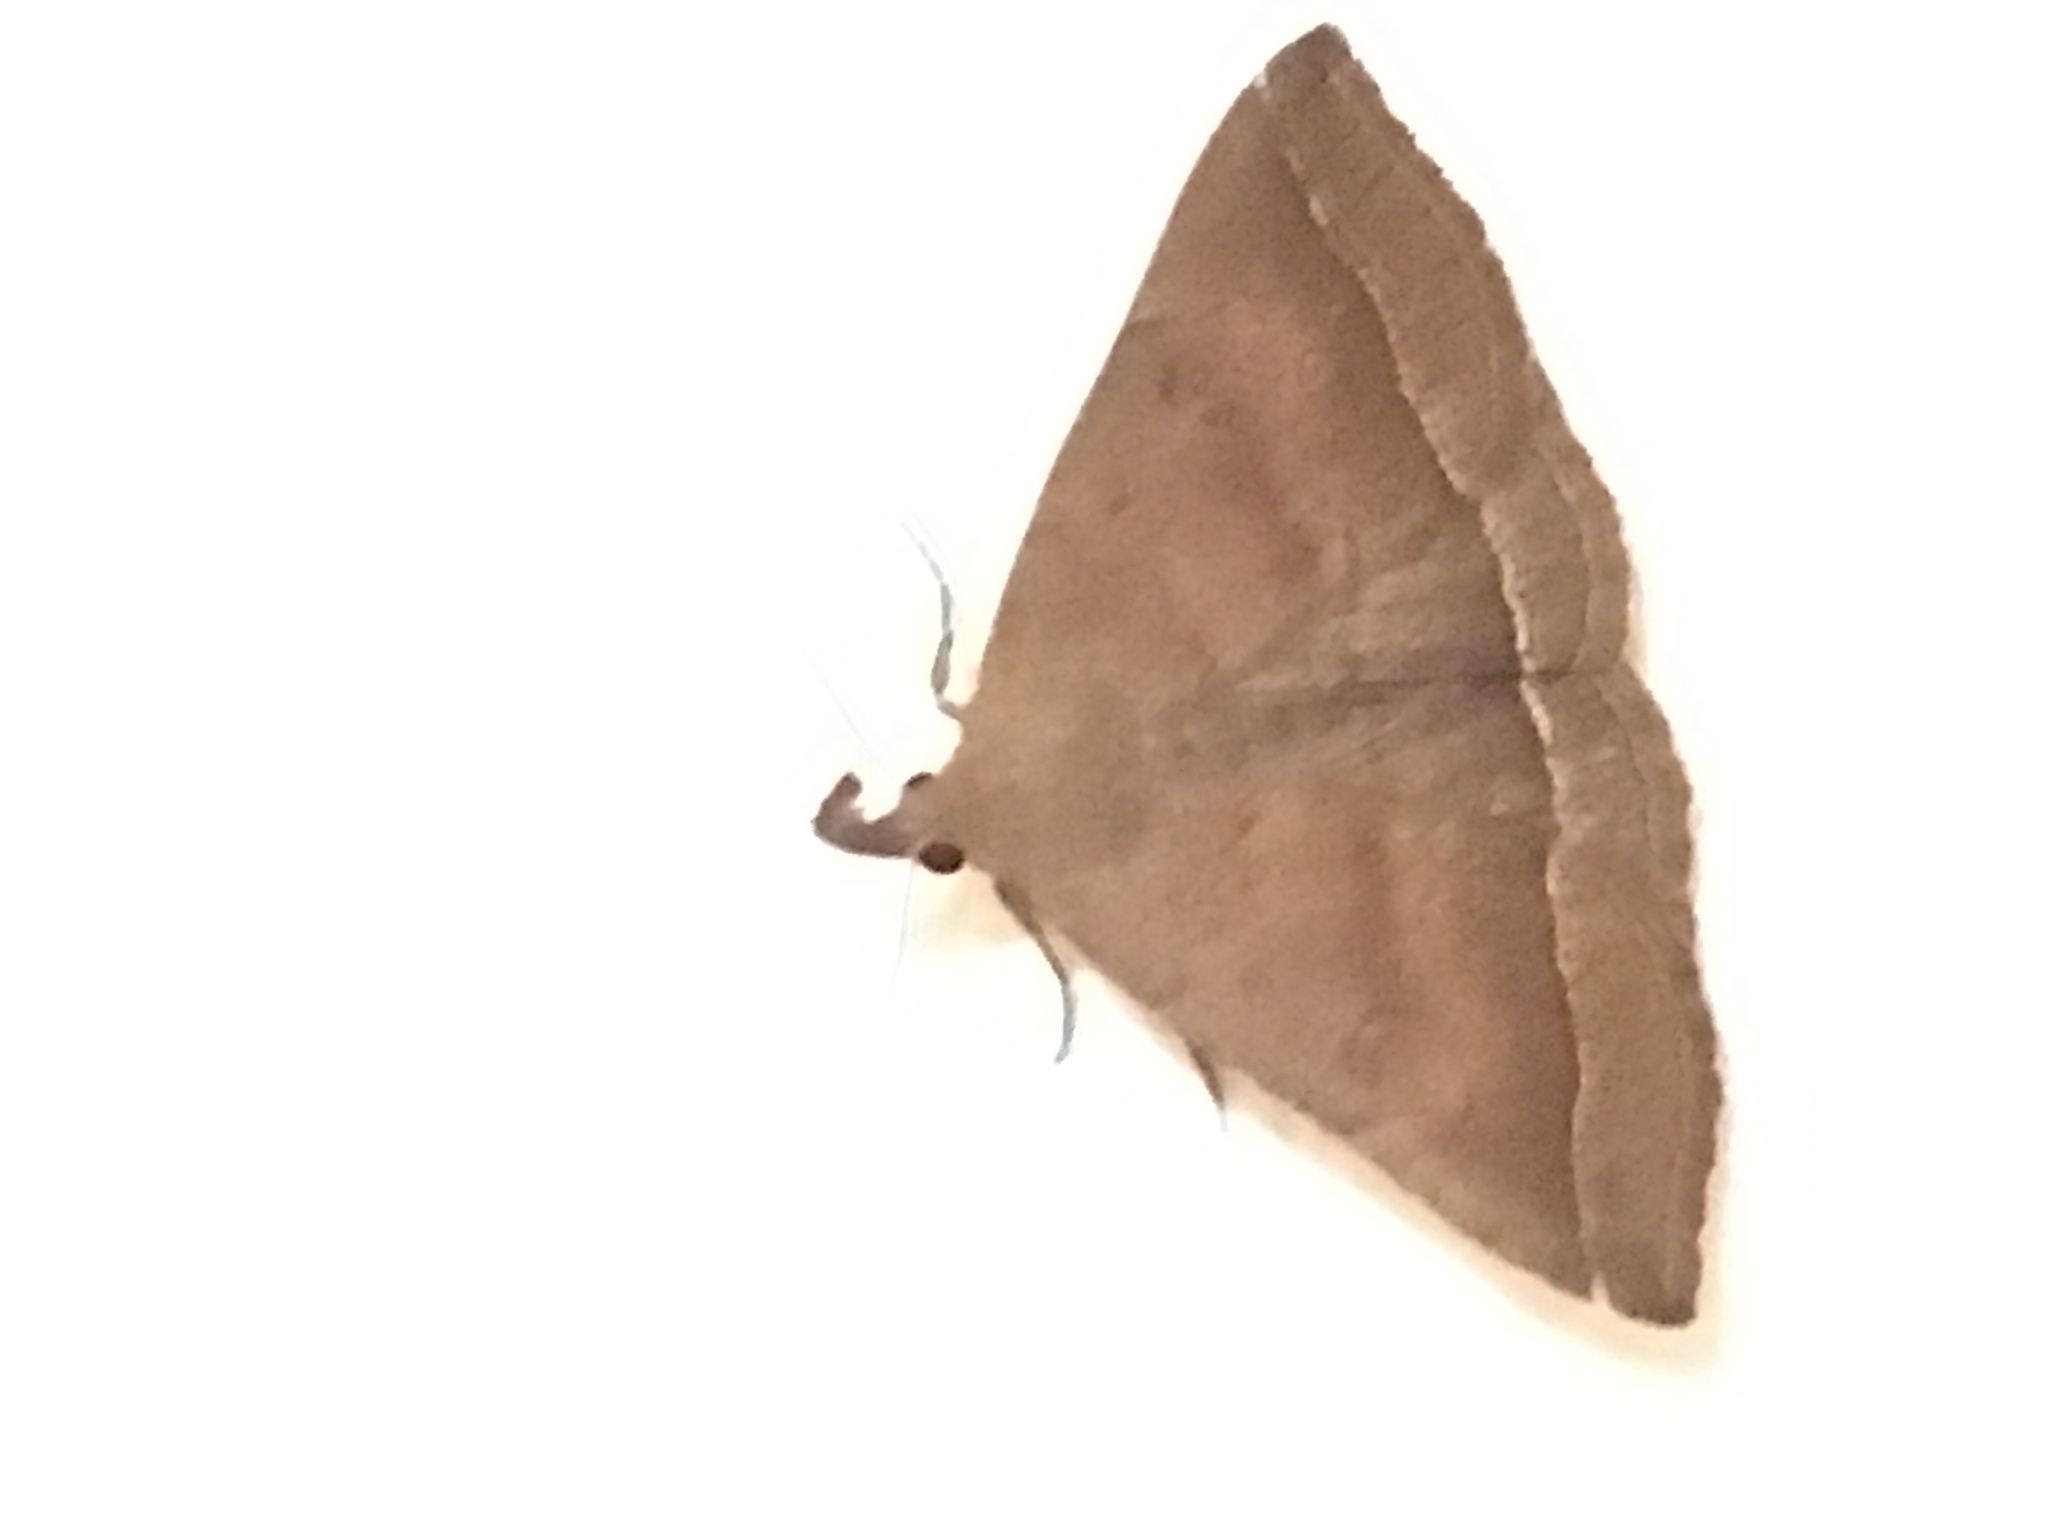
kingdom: Animalia
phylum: Arthropoda
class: Insecta
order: Lepidoptera
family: Erebidae
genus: Pechipogo
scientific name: Pechipogo plumigeralis
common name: Plumed fan-foot
